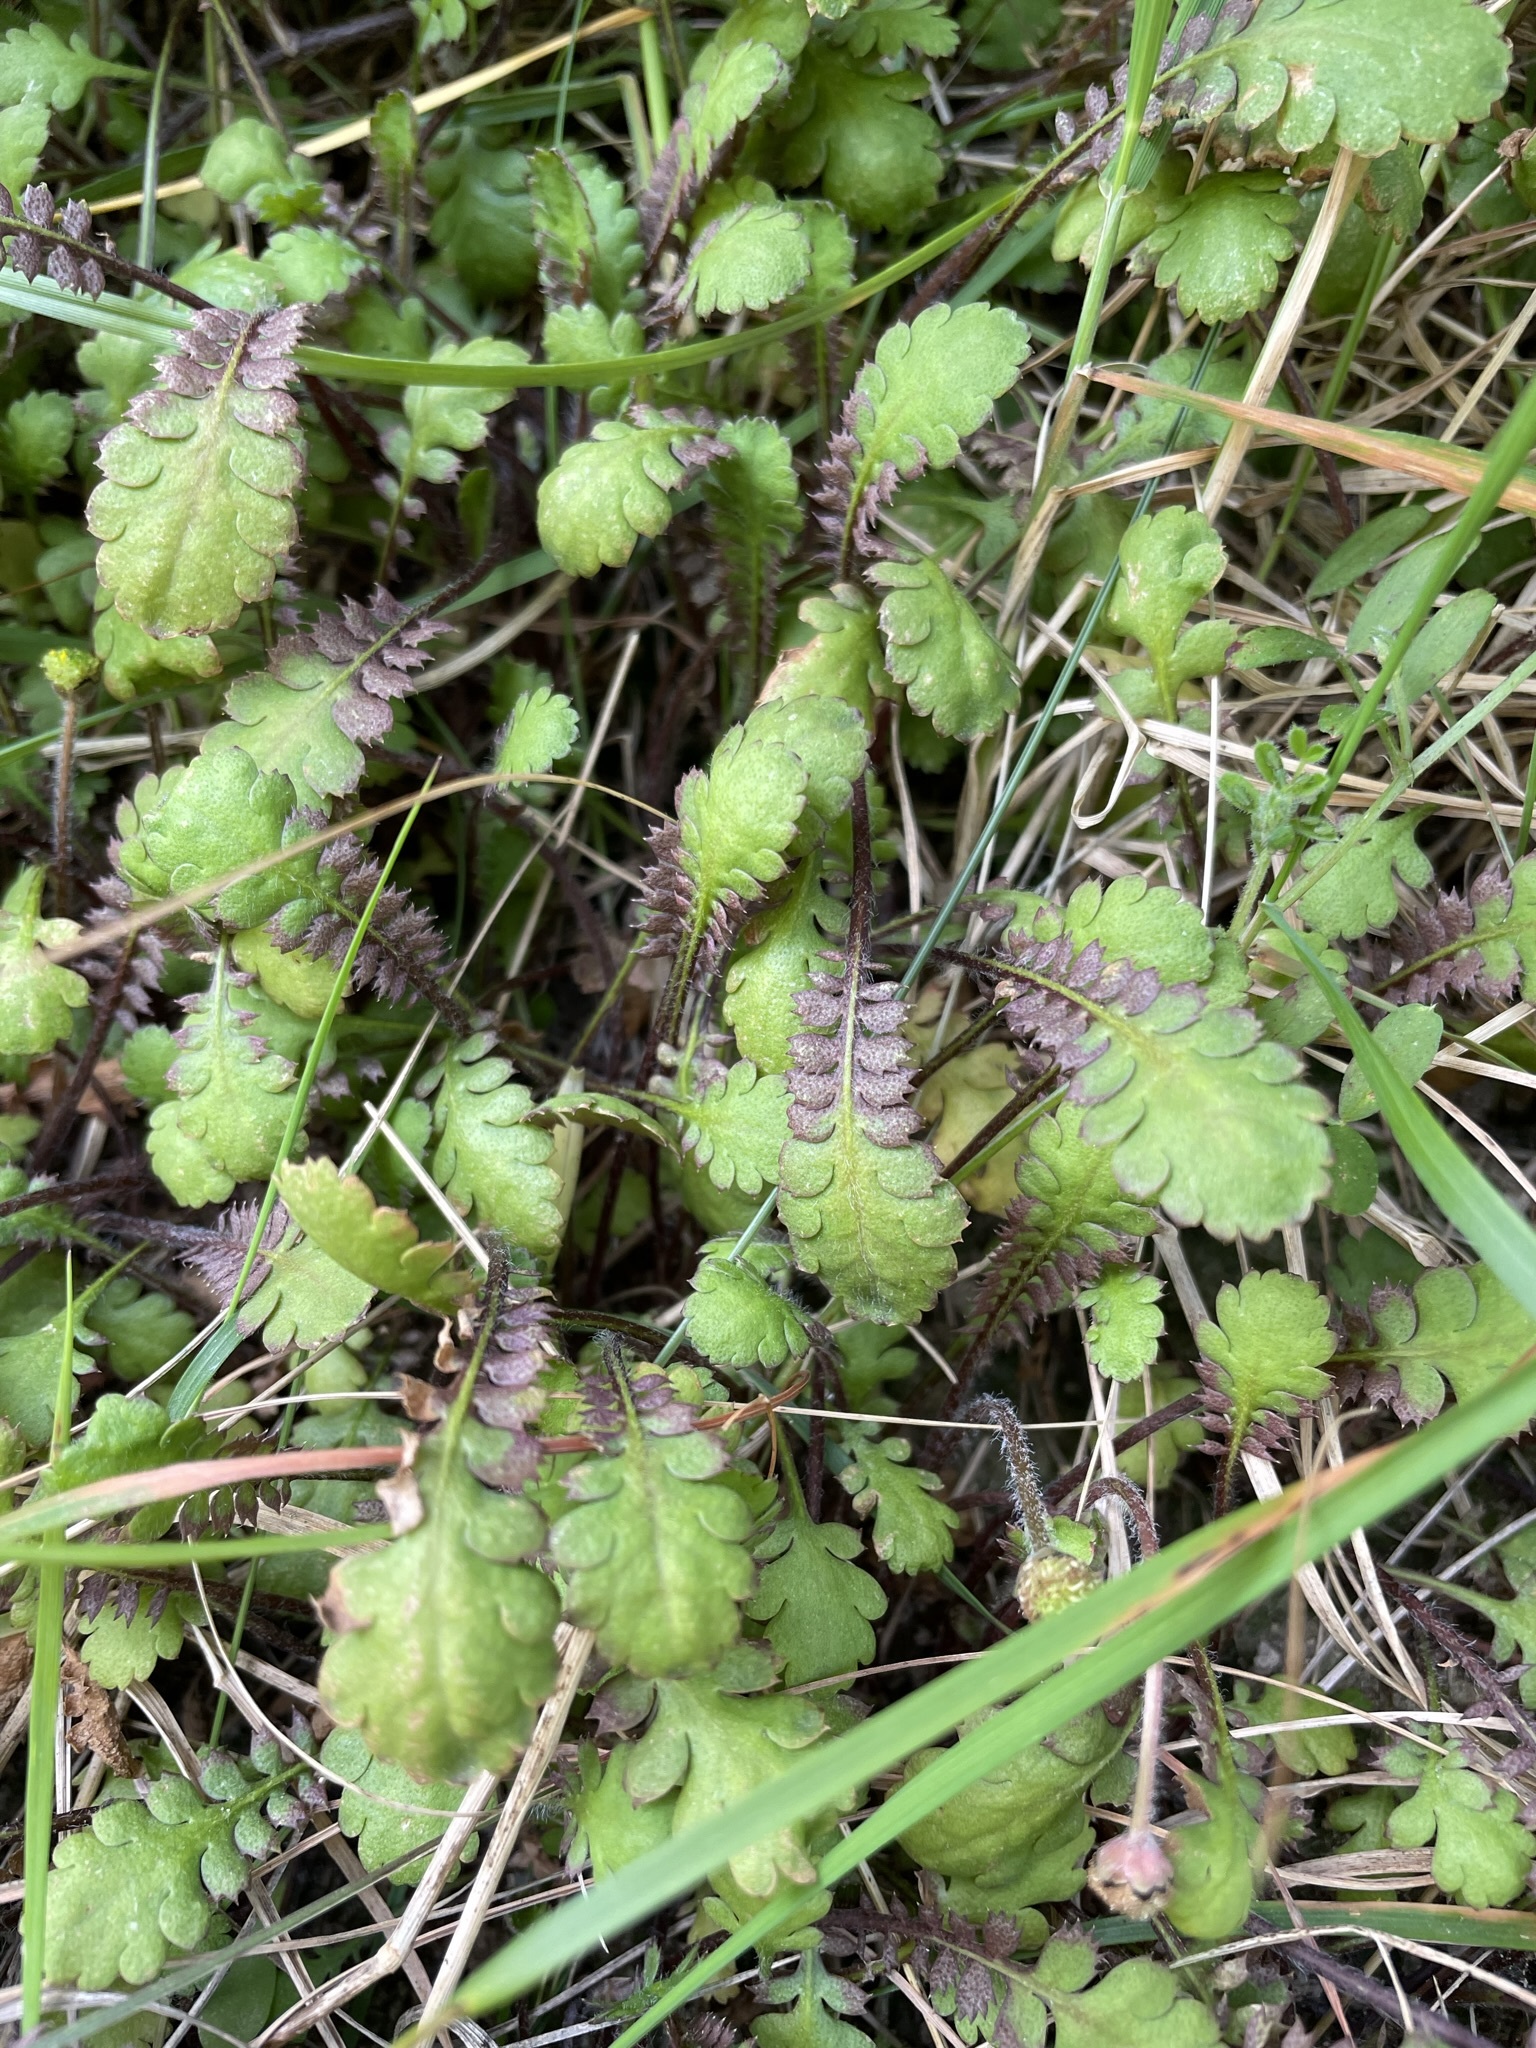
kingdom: Plantae
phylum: Tracheophyta
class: Magnoliopsida
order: Asterales
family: Asteraceae
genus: Leptinella
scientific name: Leptinella squalida
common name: New zealand brass-buttons
